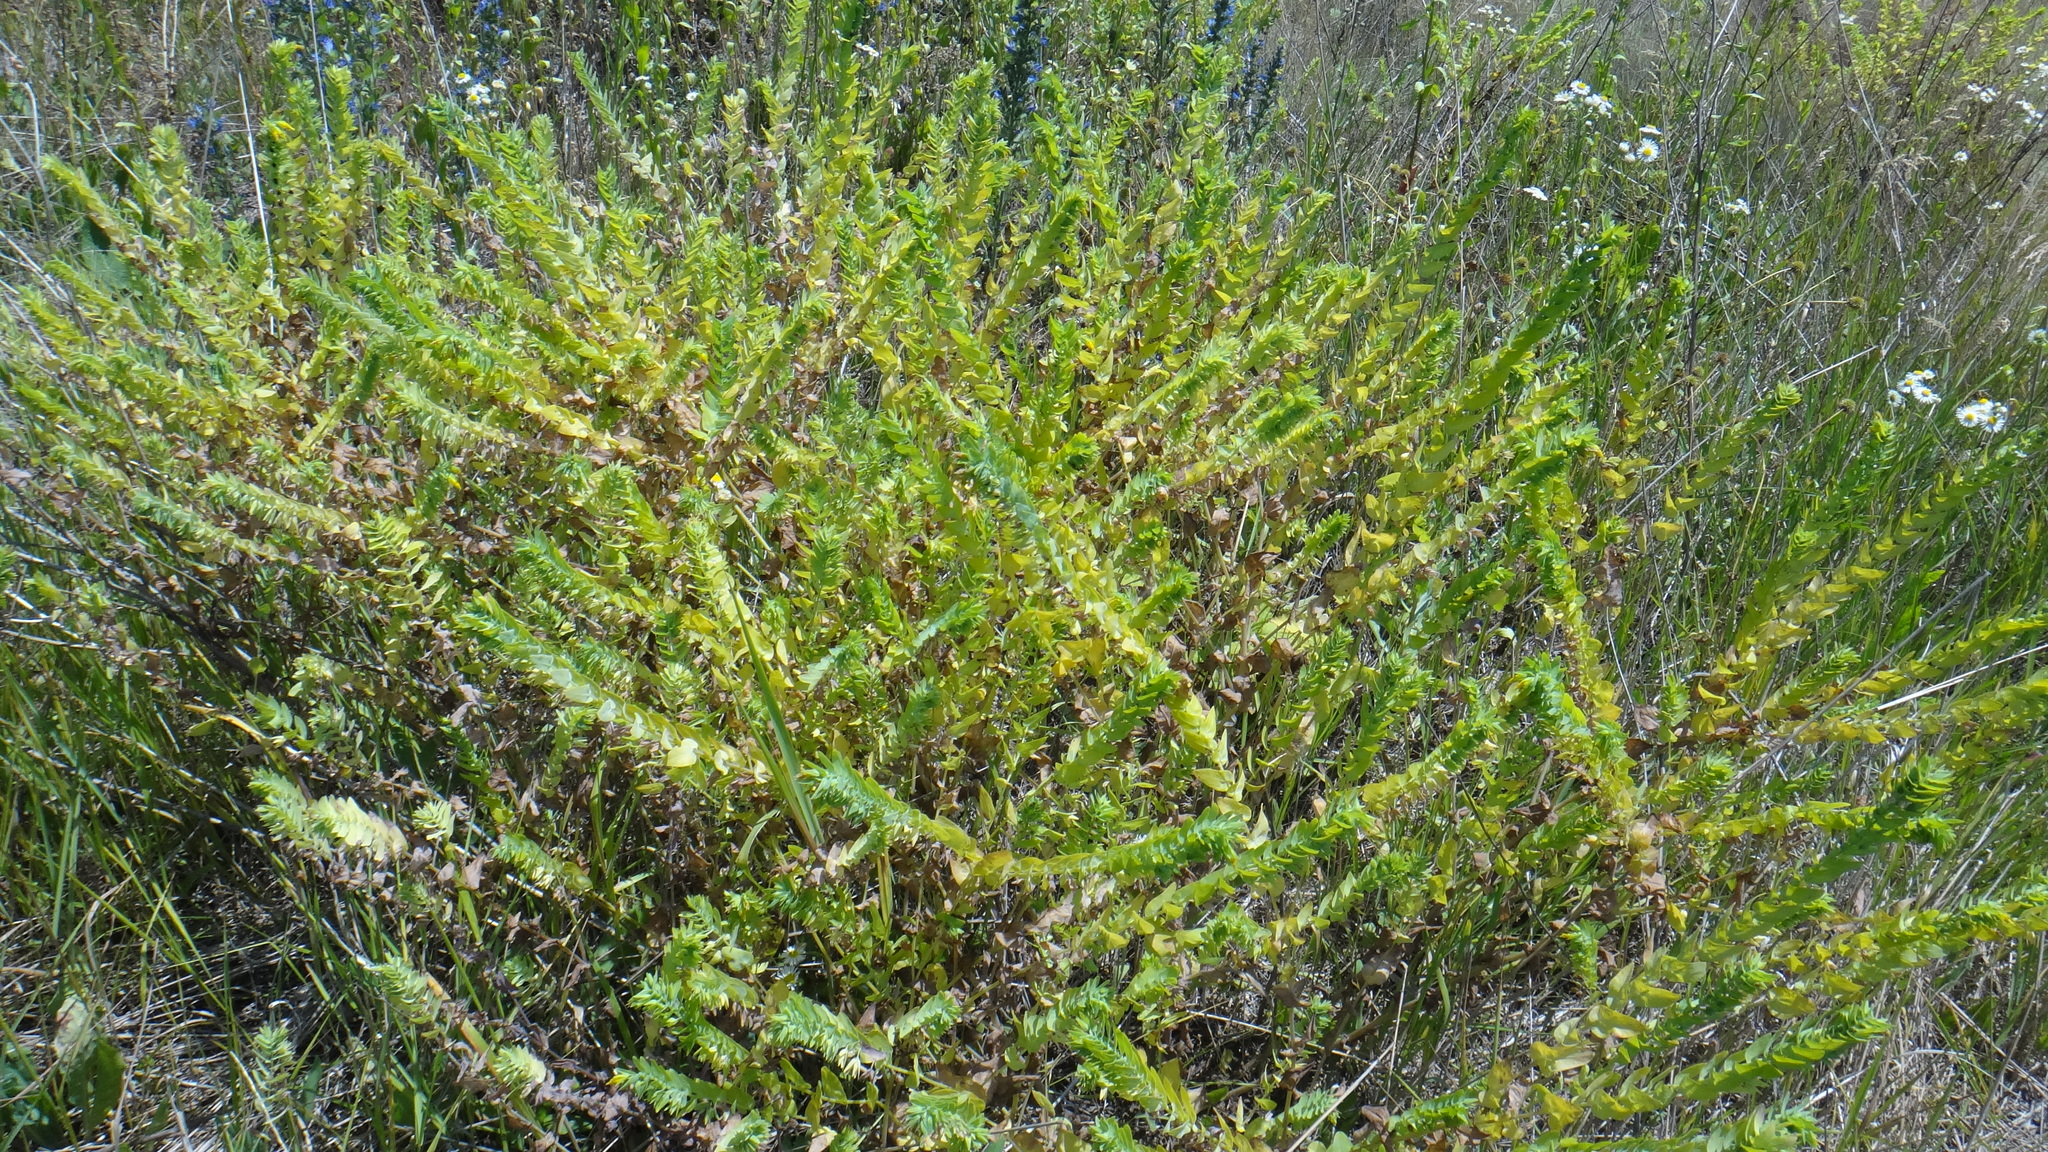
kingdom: Plantae
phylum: Tracheophyta
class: Magnoliopsida
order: Boraginales
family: Boraginaceae
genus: Cerinthe
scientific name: Cerinthe minor
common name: Lesser honeywort
